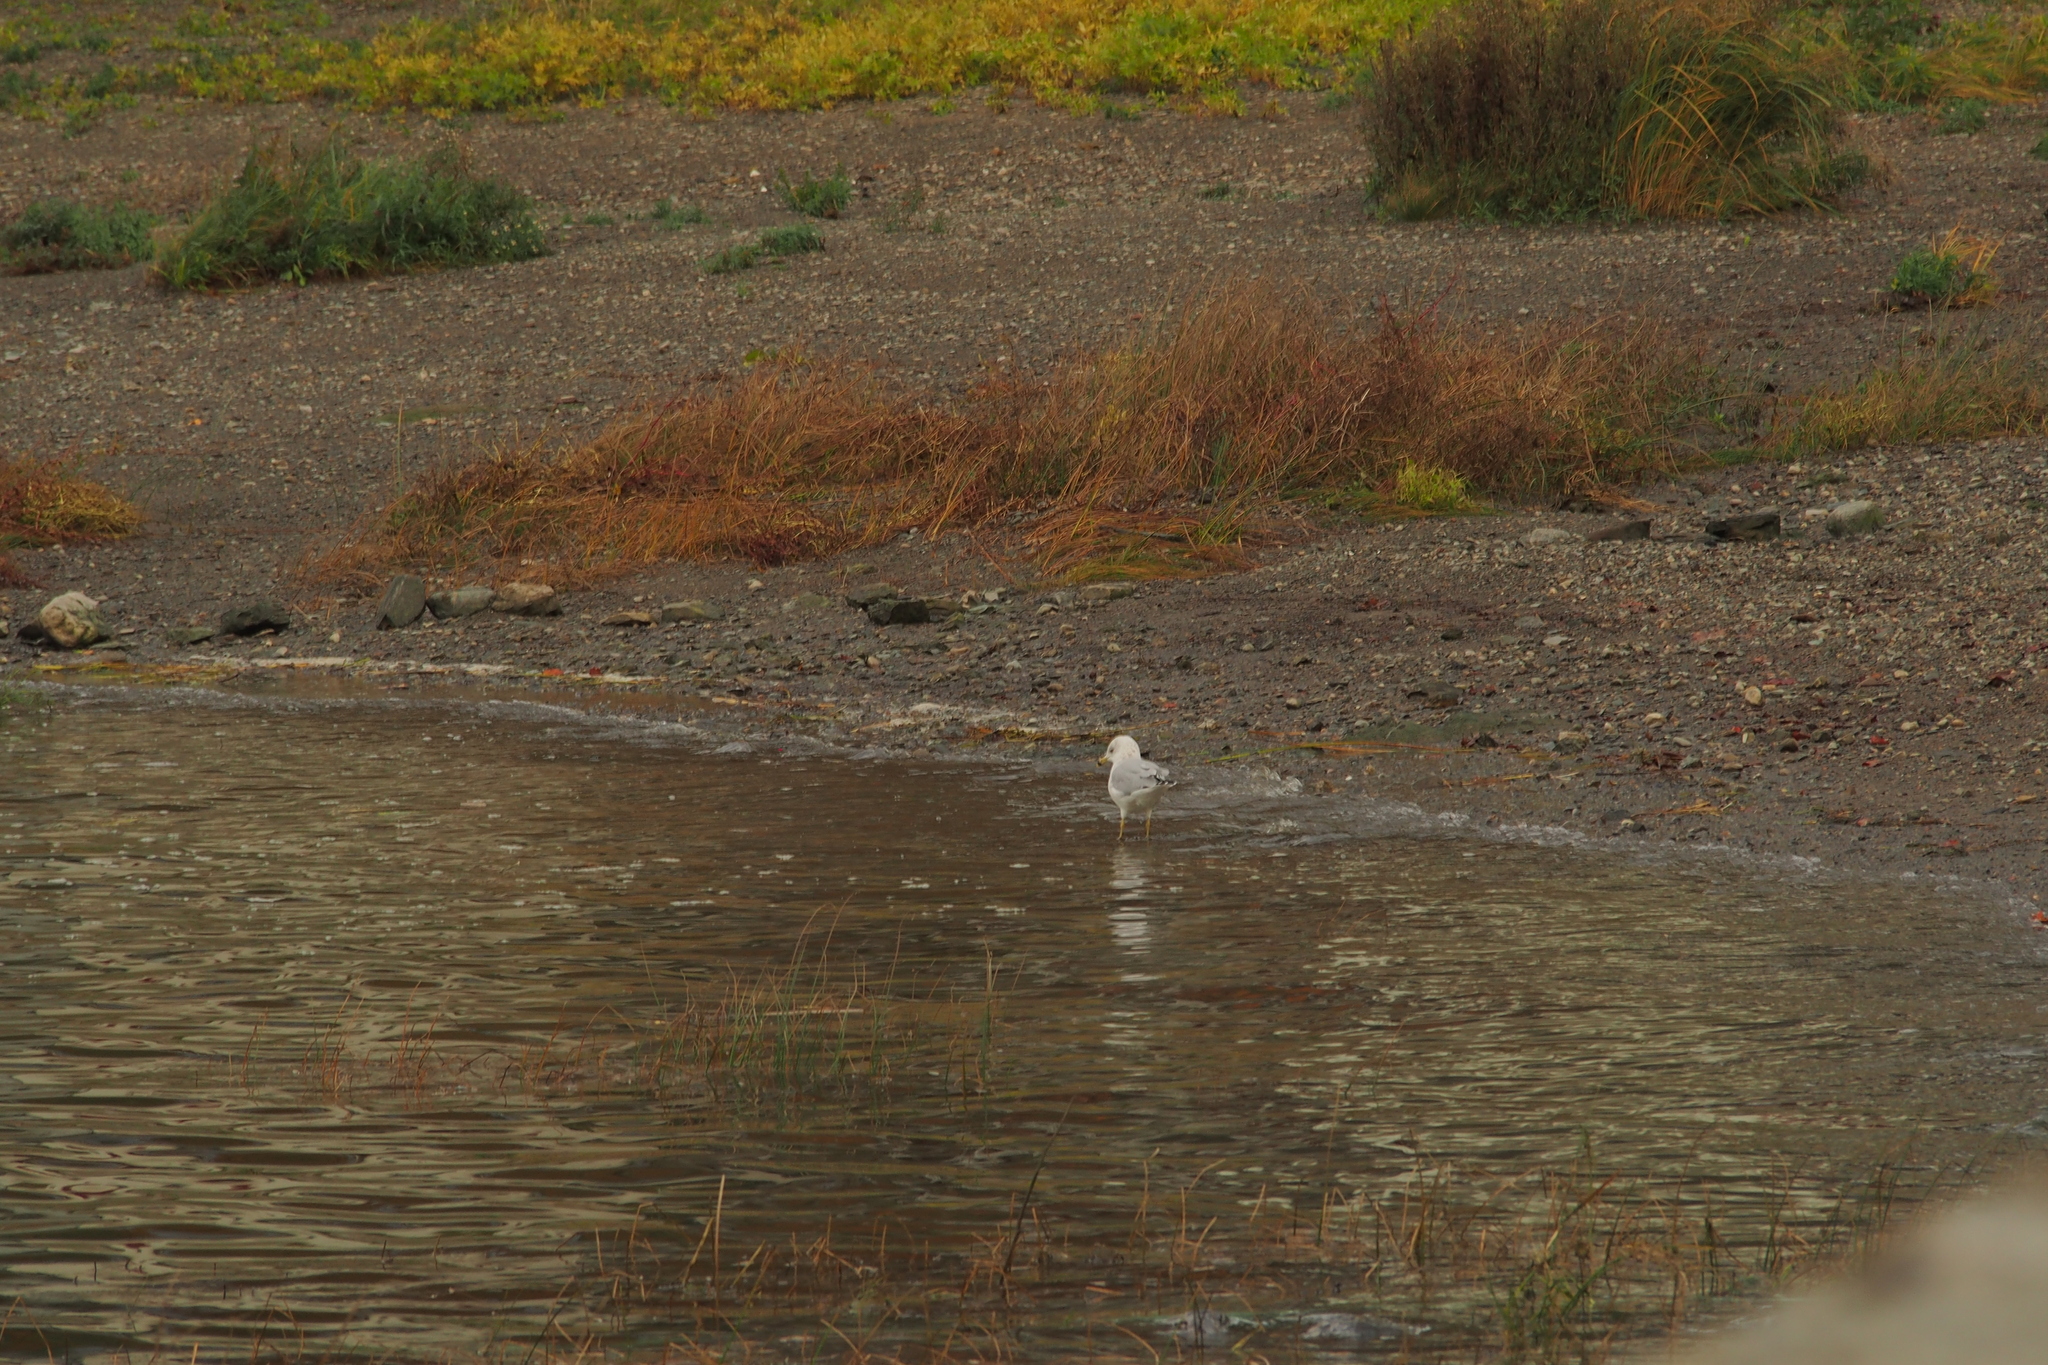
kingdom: Animalia
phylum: Chordata
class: Aves
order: Charadriiformes
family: Laridae
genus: Larus
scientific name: Larus delawarensis
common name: Ring-billed gull
